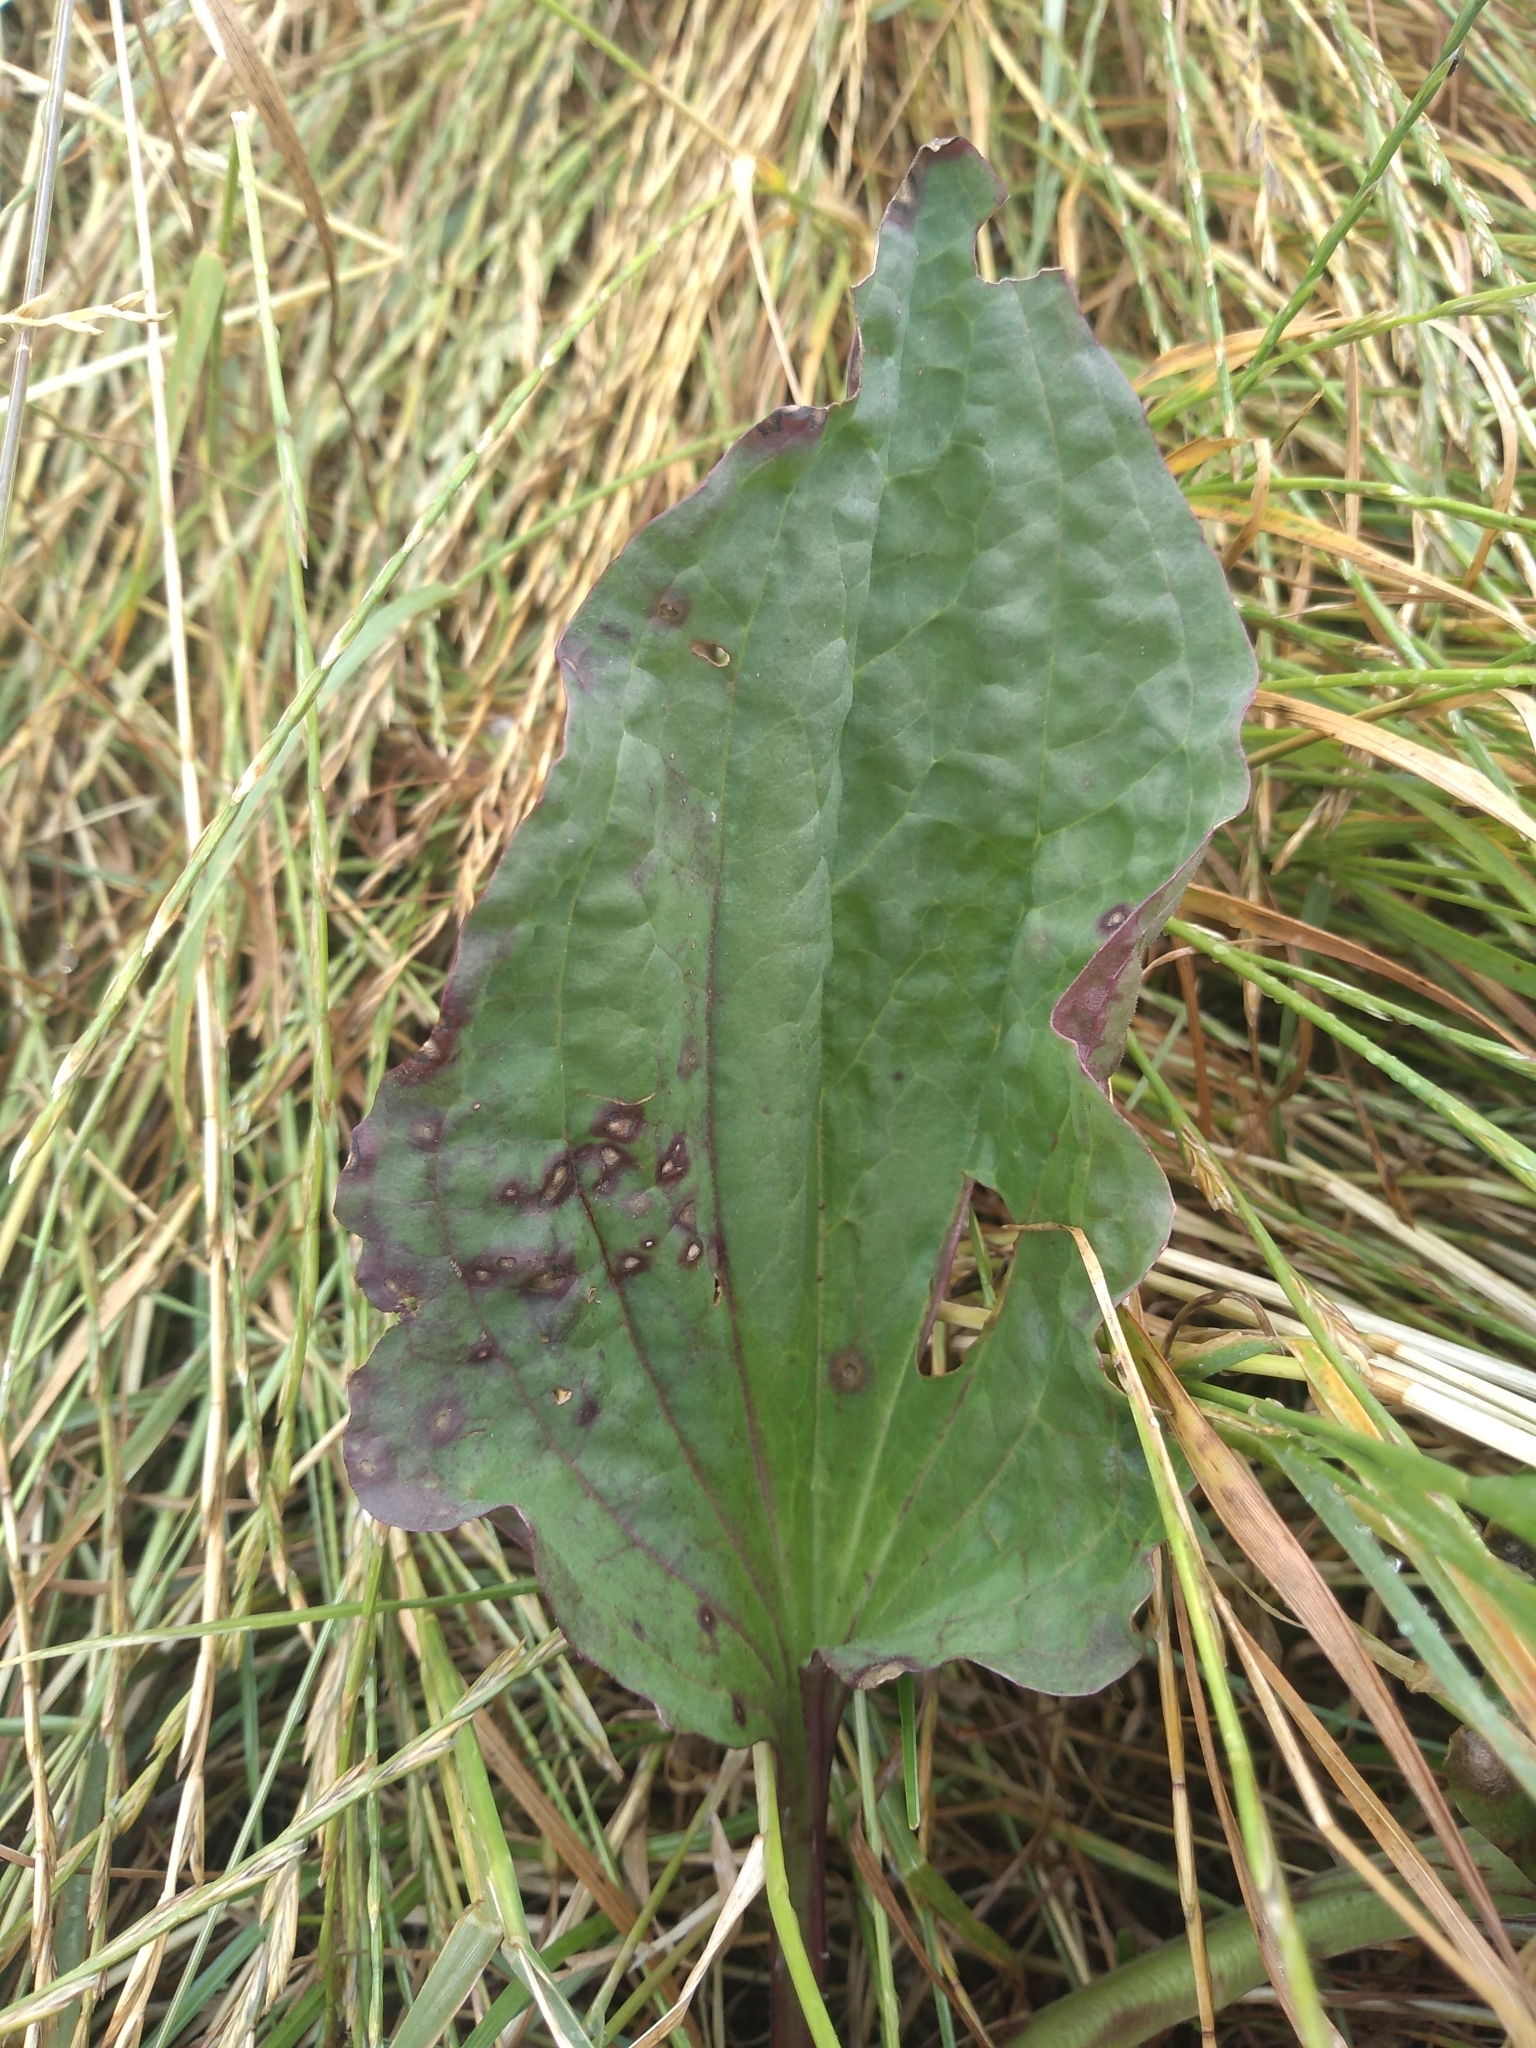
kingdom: Plantae
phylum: Tracheophyta
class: Magnoliopsida
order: Lamiales
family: Plantaginaceae
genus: Plantago
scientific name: Plantago major
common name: Common plantain
